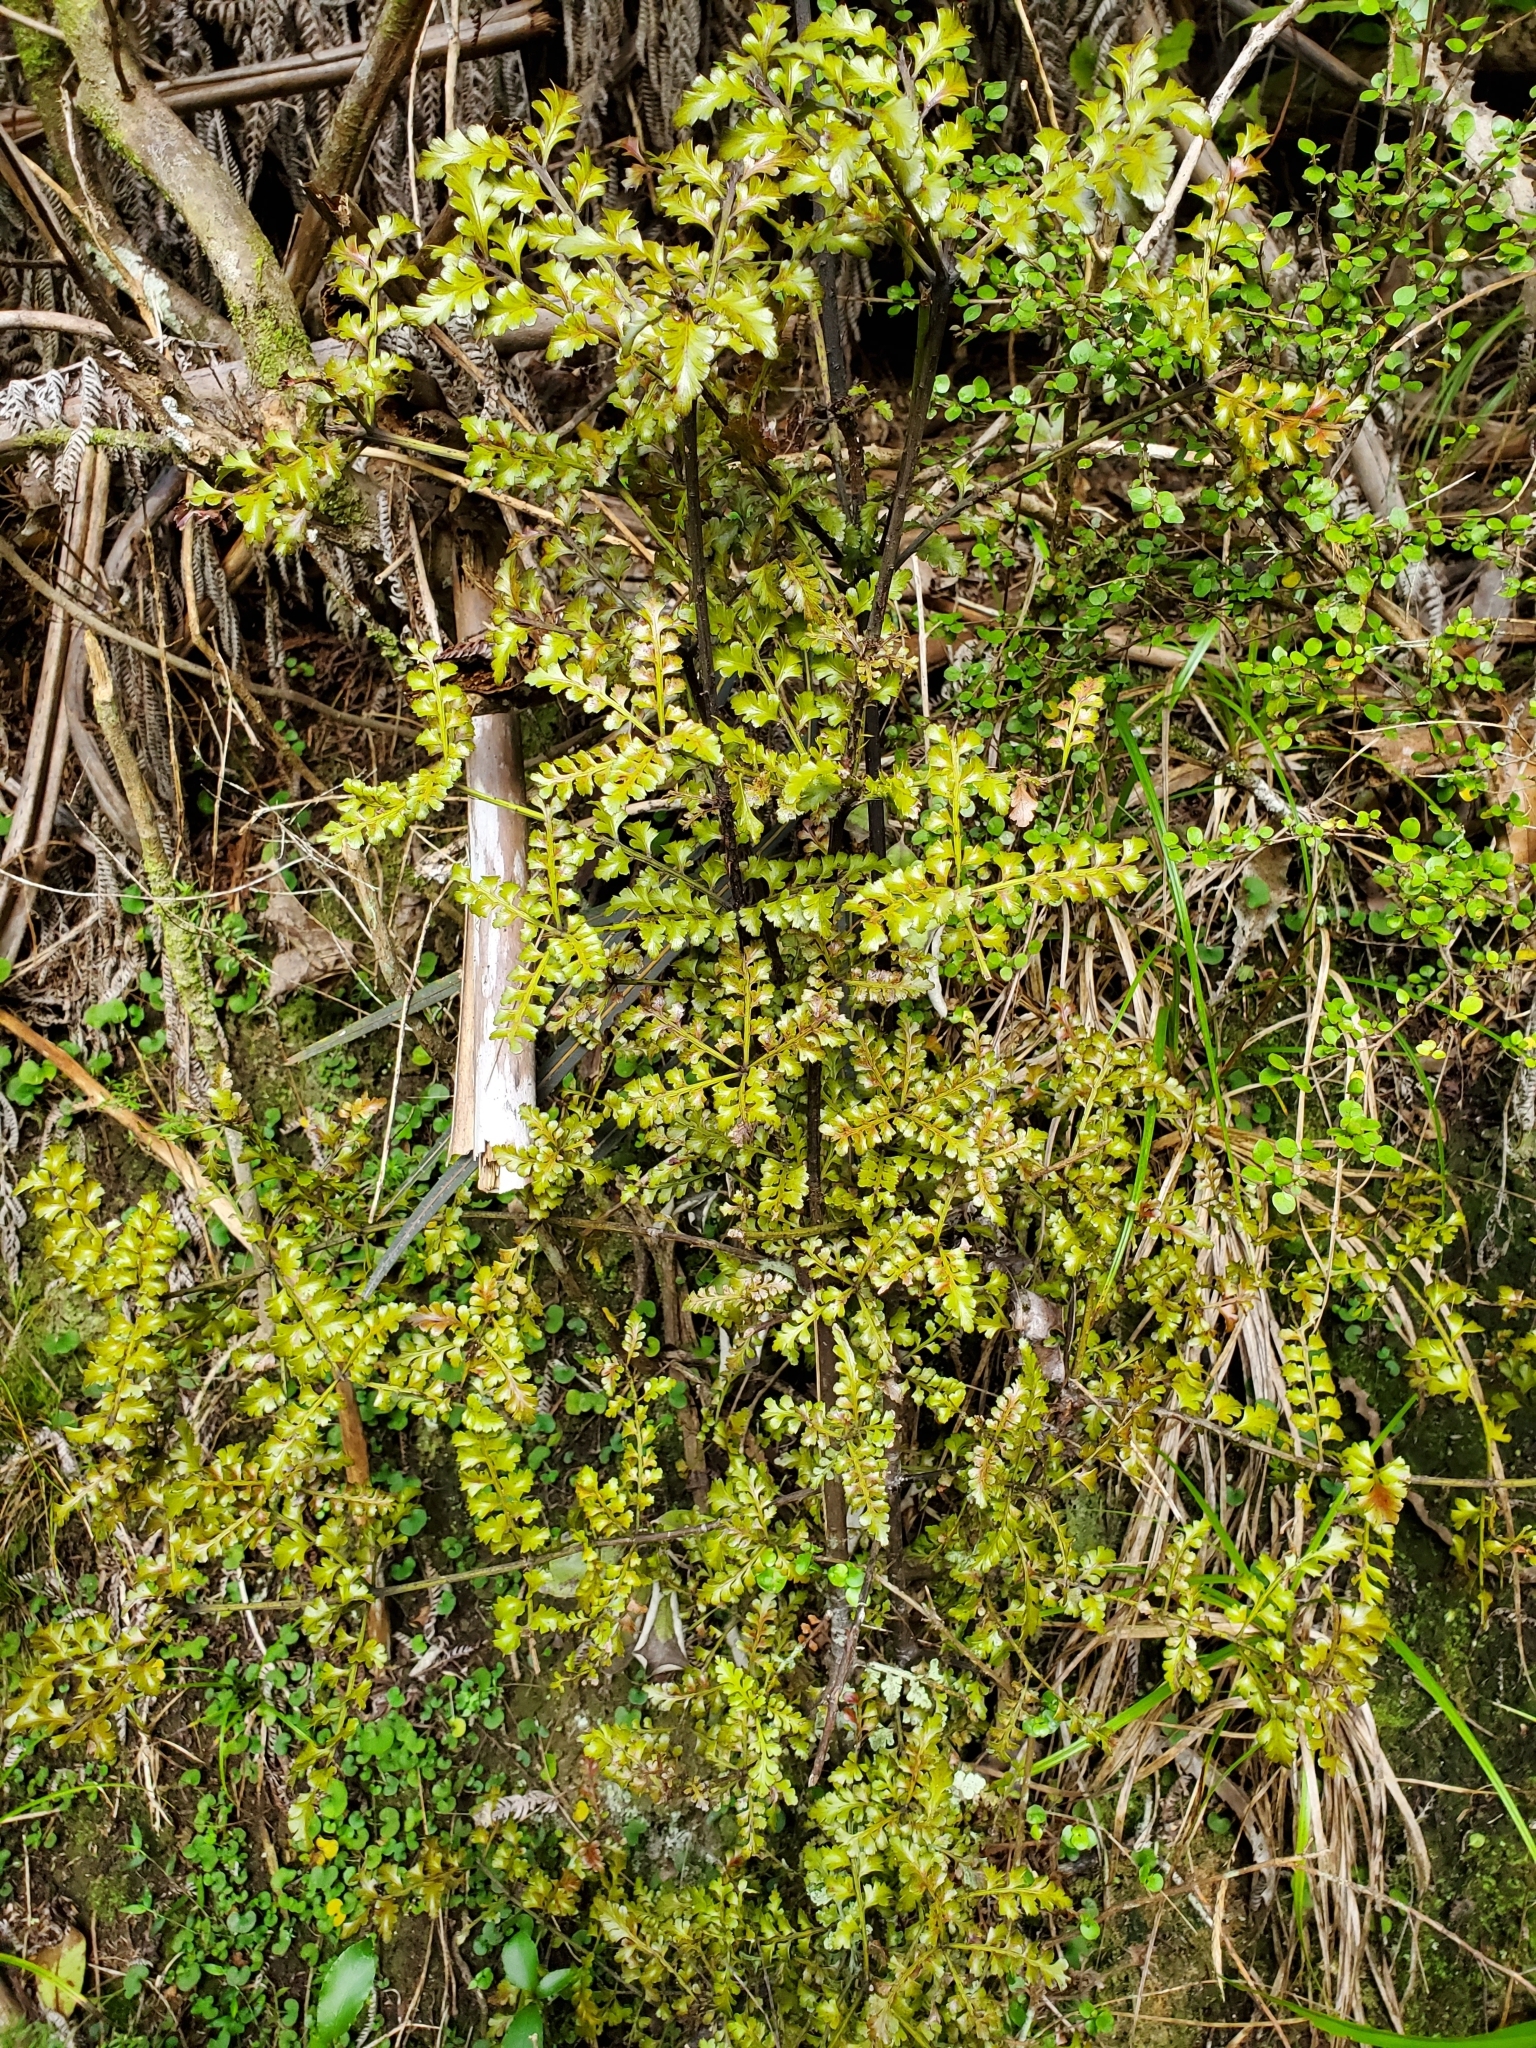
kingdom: Plantae
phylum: Tracheophyta
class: Pinopsida
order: Pinales
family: Phyllocladaceae
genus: Phyllocladus
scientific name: Phyllocladus trichomanoides
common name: Celery pine
